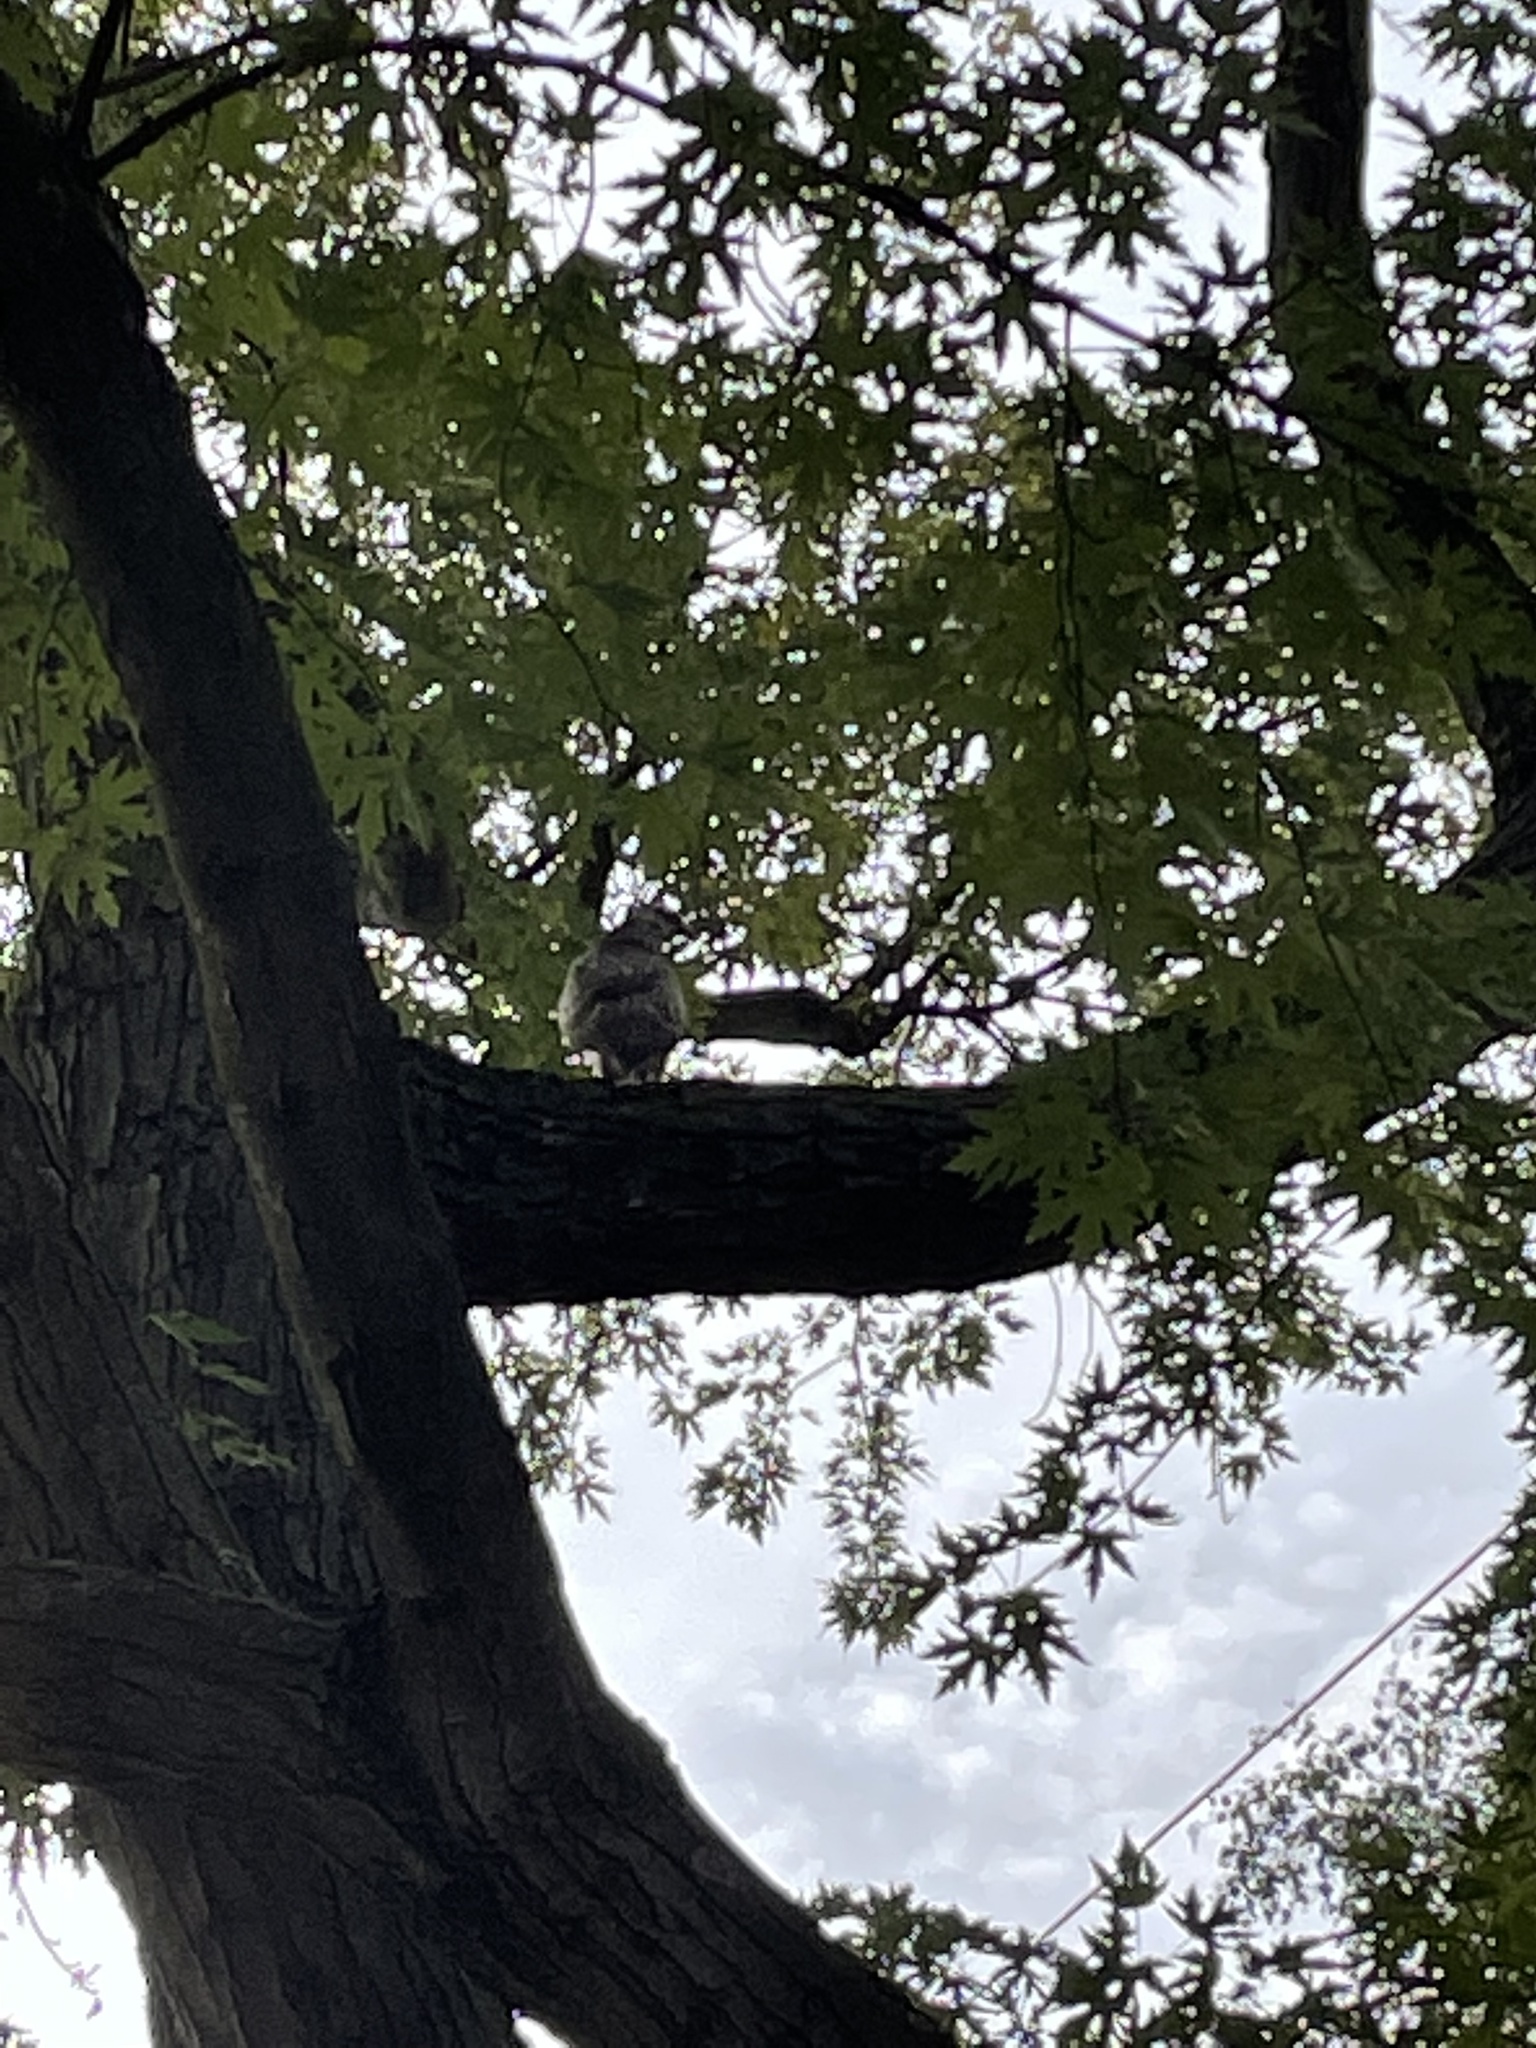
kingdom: Animalia
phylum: Chordata
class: Aves
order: Accipitriformes
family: Accipitridae
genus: Buteo
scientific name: Buteo buteo
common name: Common buzzard
